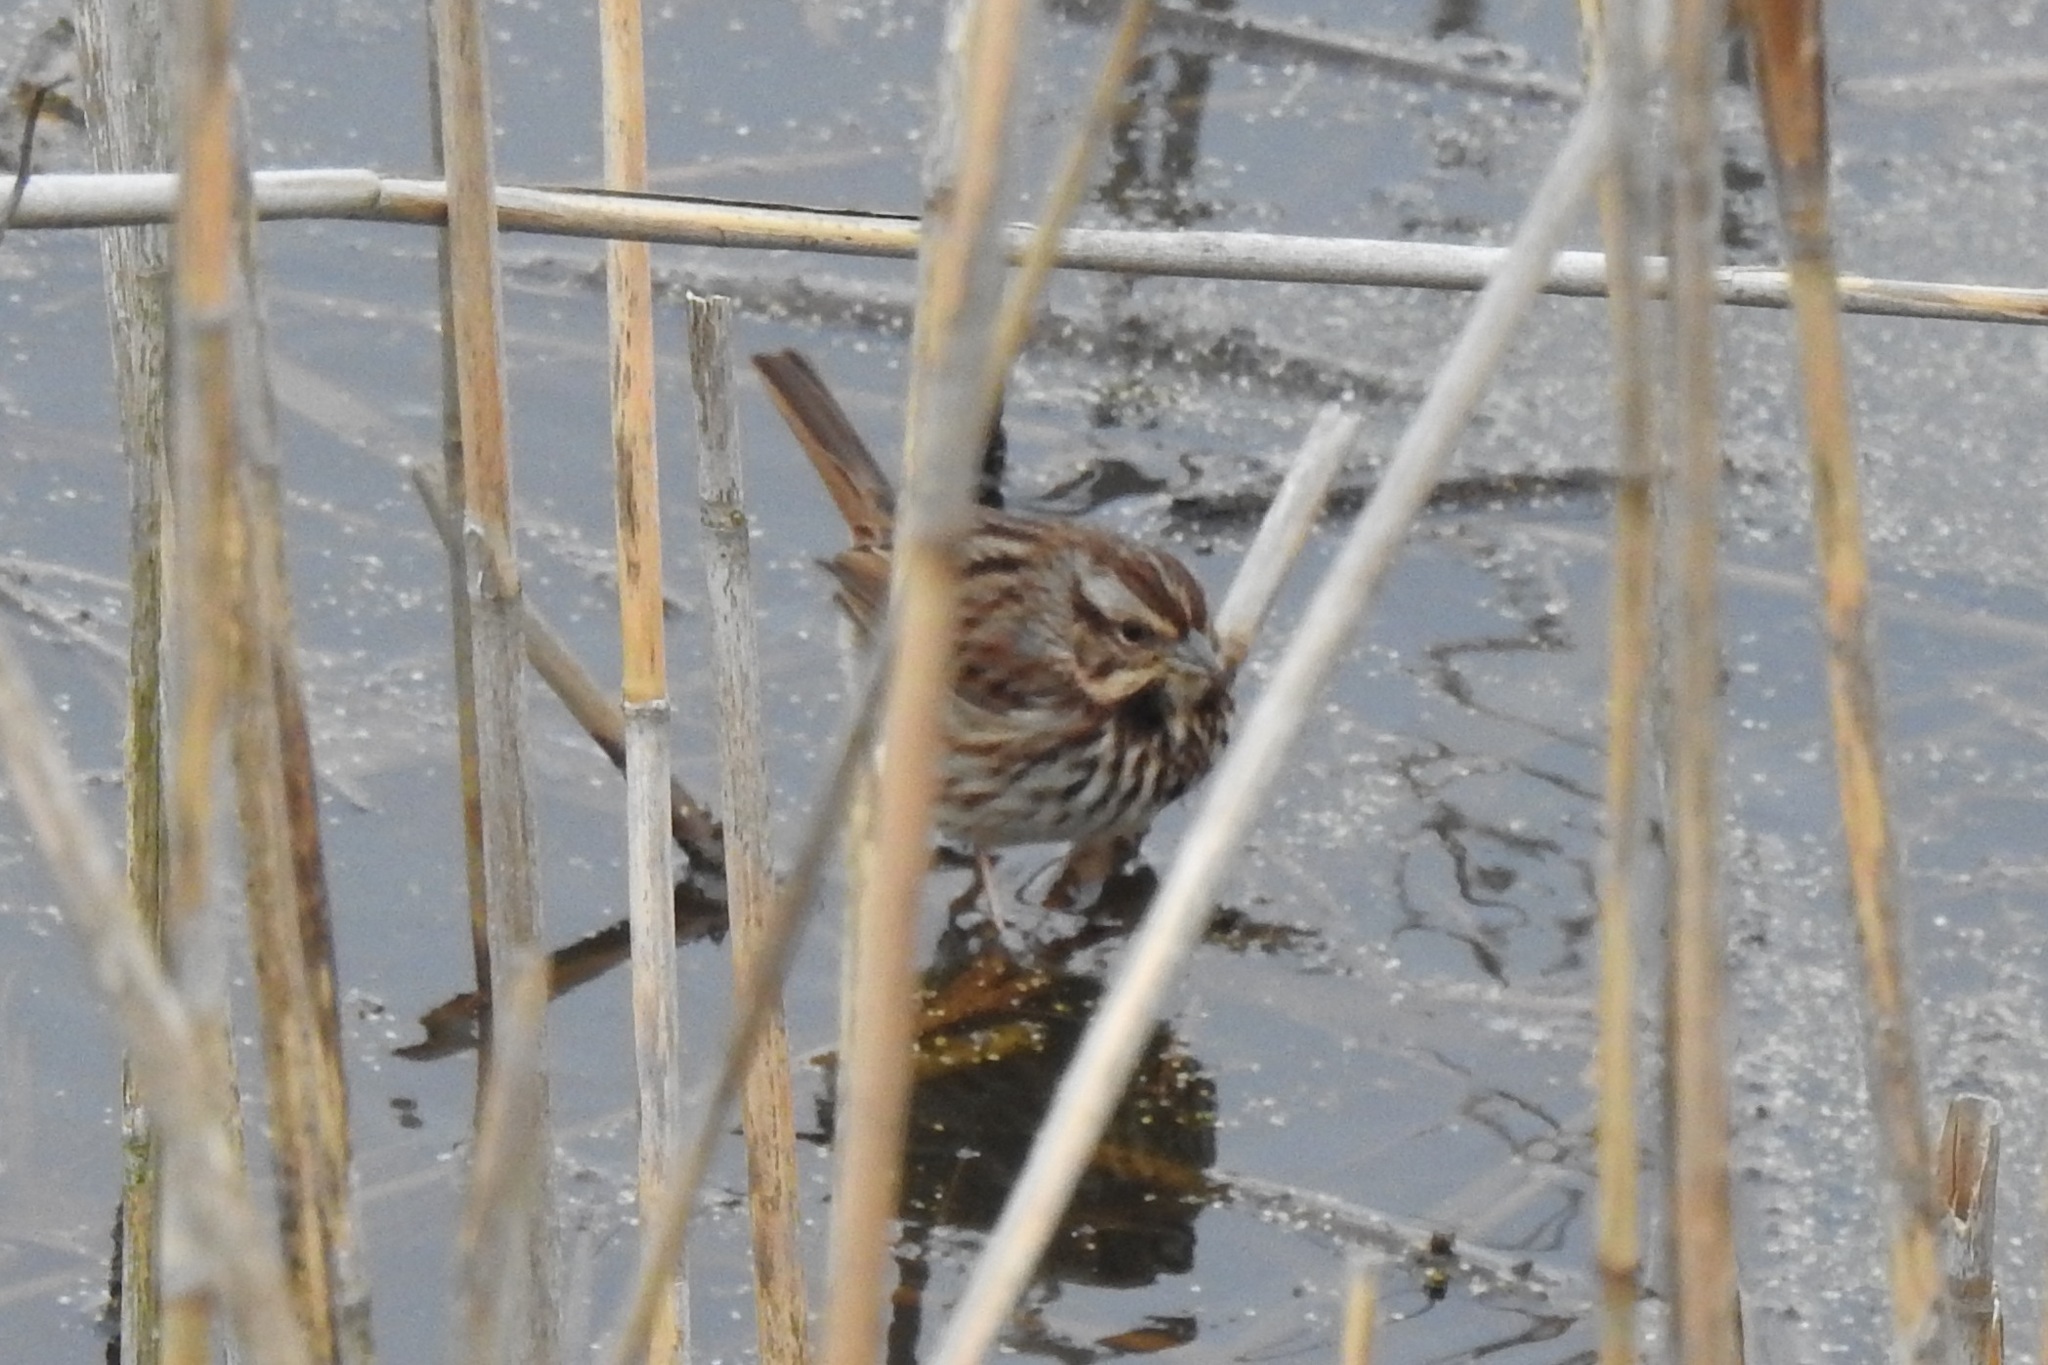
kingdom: Animalia
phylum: Chordata
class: Aves
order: Passeriformes
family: Passerellidae
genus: Melospiza
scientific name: Melospiza melodia
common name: Song sparrow
